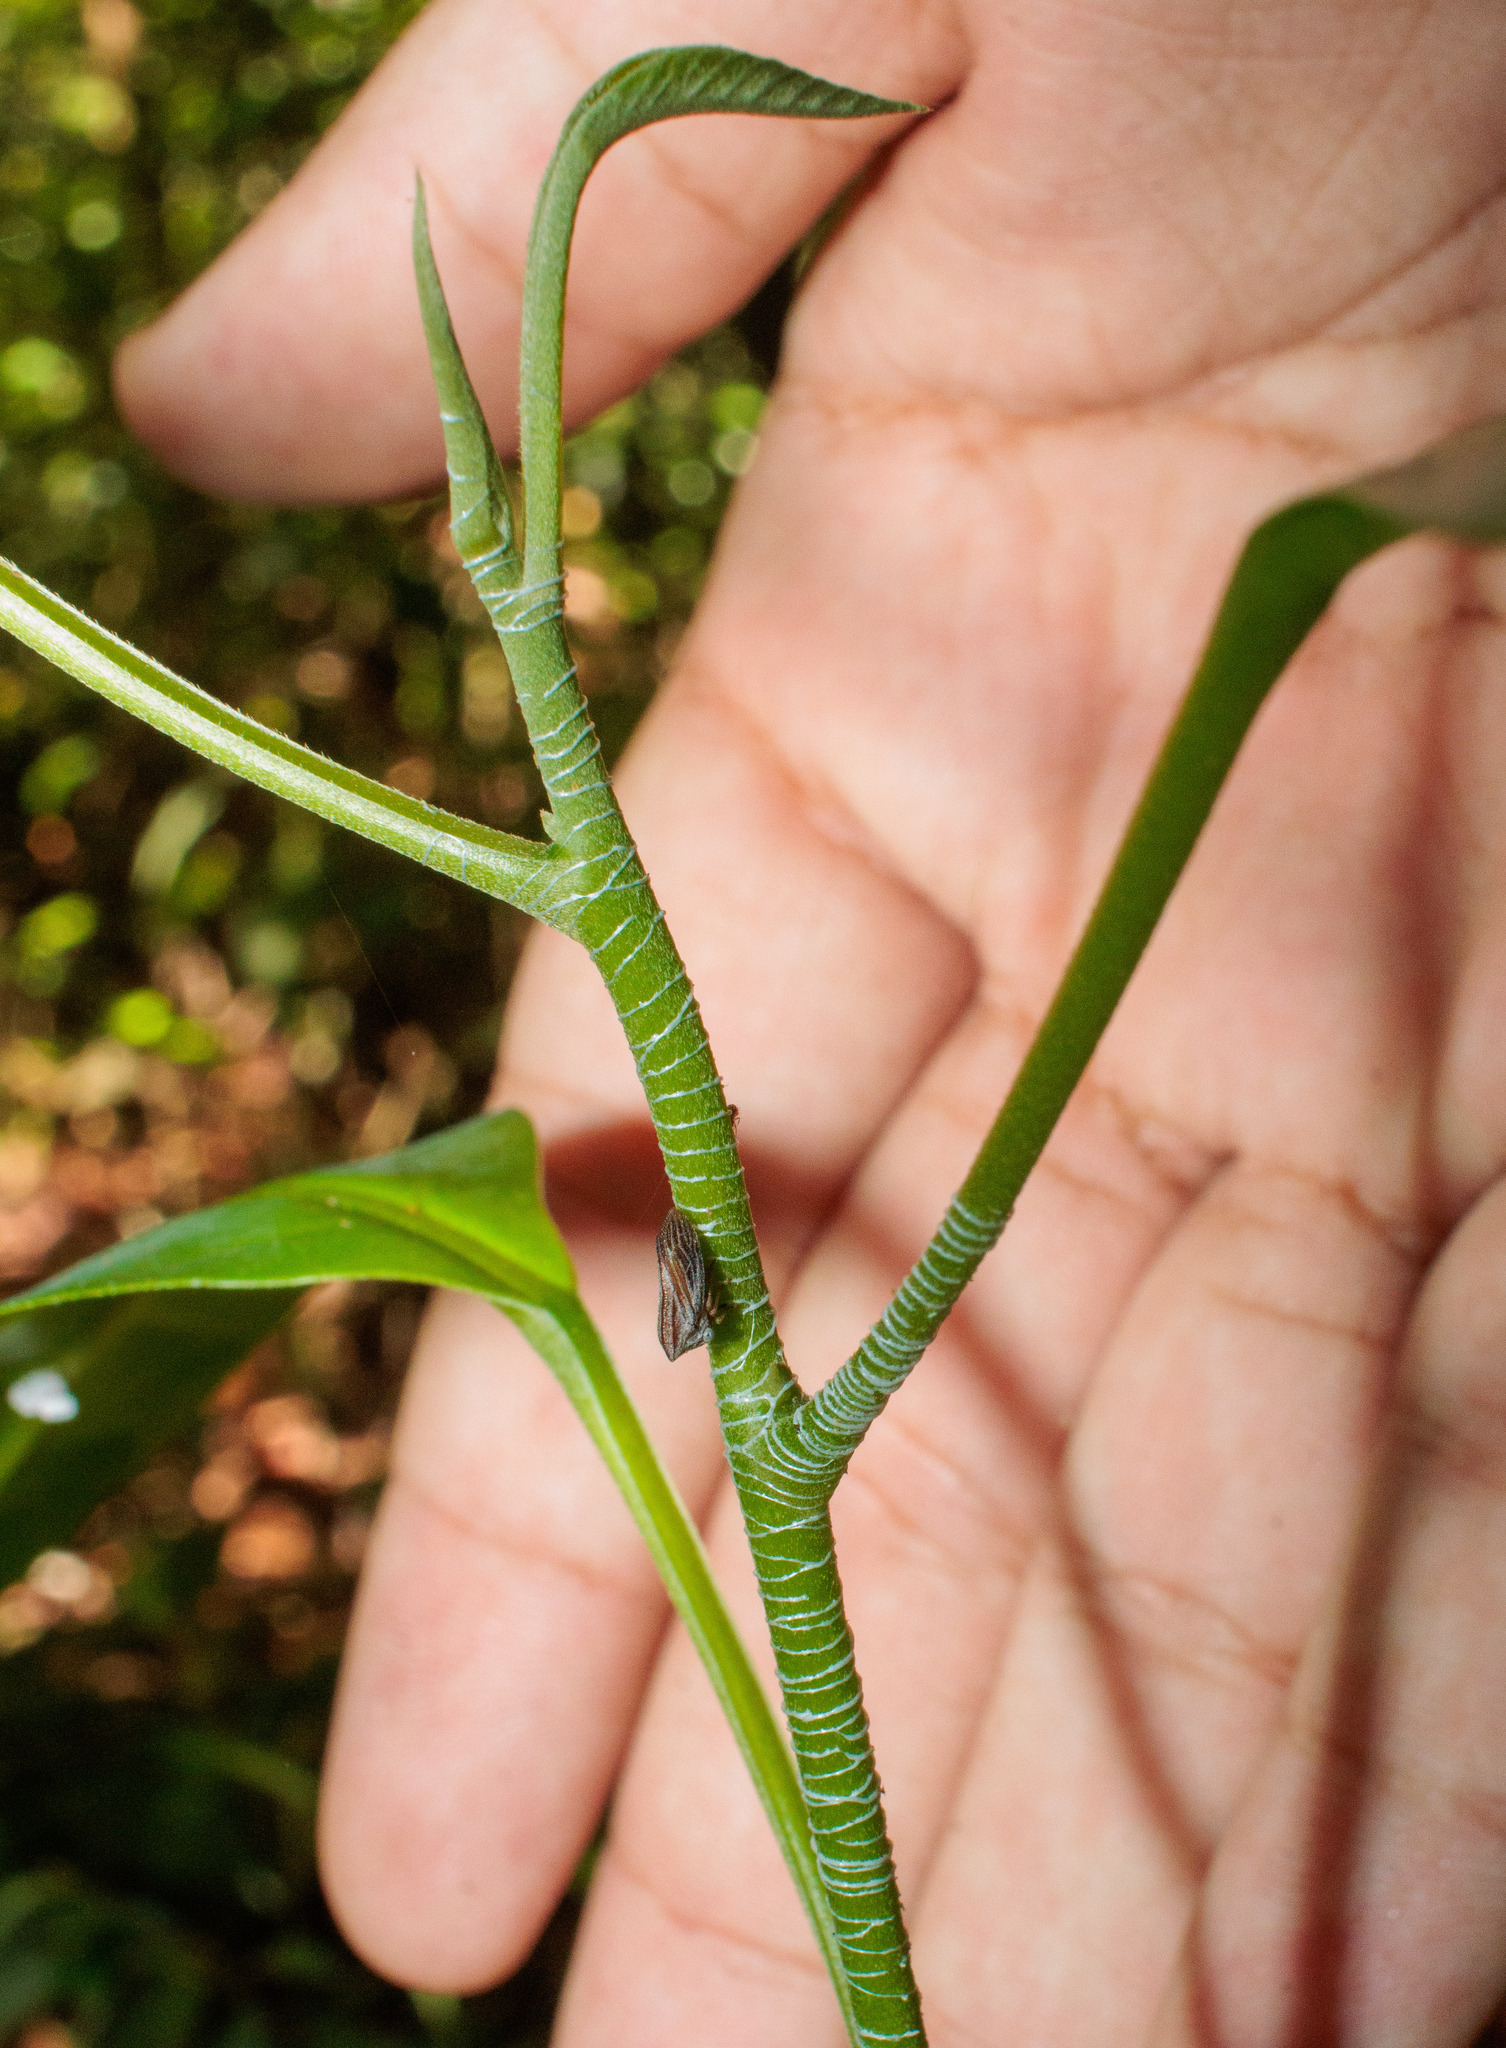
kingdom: Animalia
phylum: Arthropoda
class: Insecta
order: Hemiptera
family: Membracidae
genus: Havilandia
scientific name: Havilandia pruinosa
